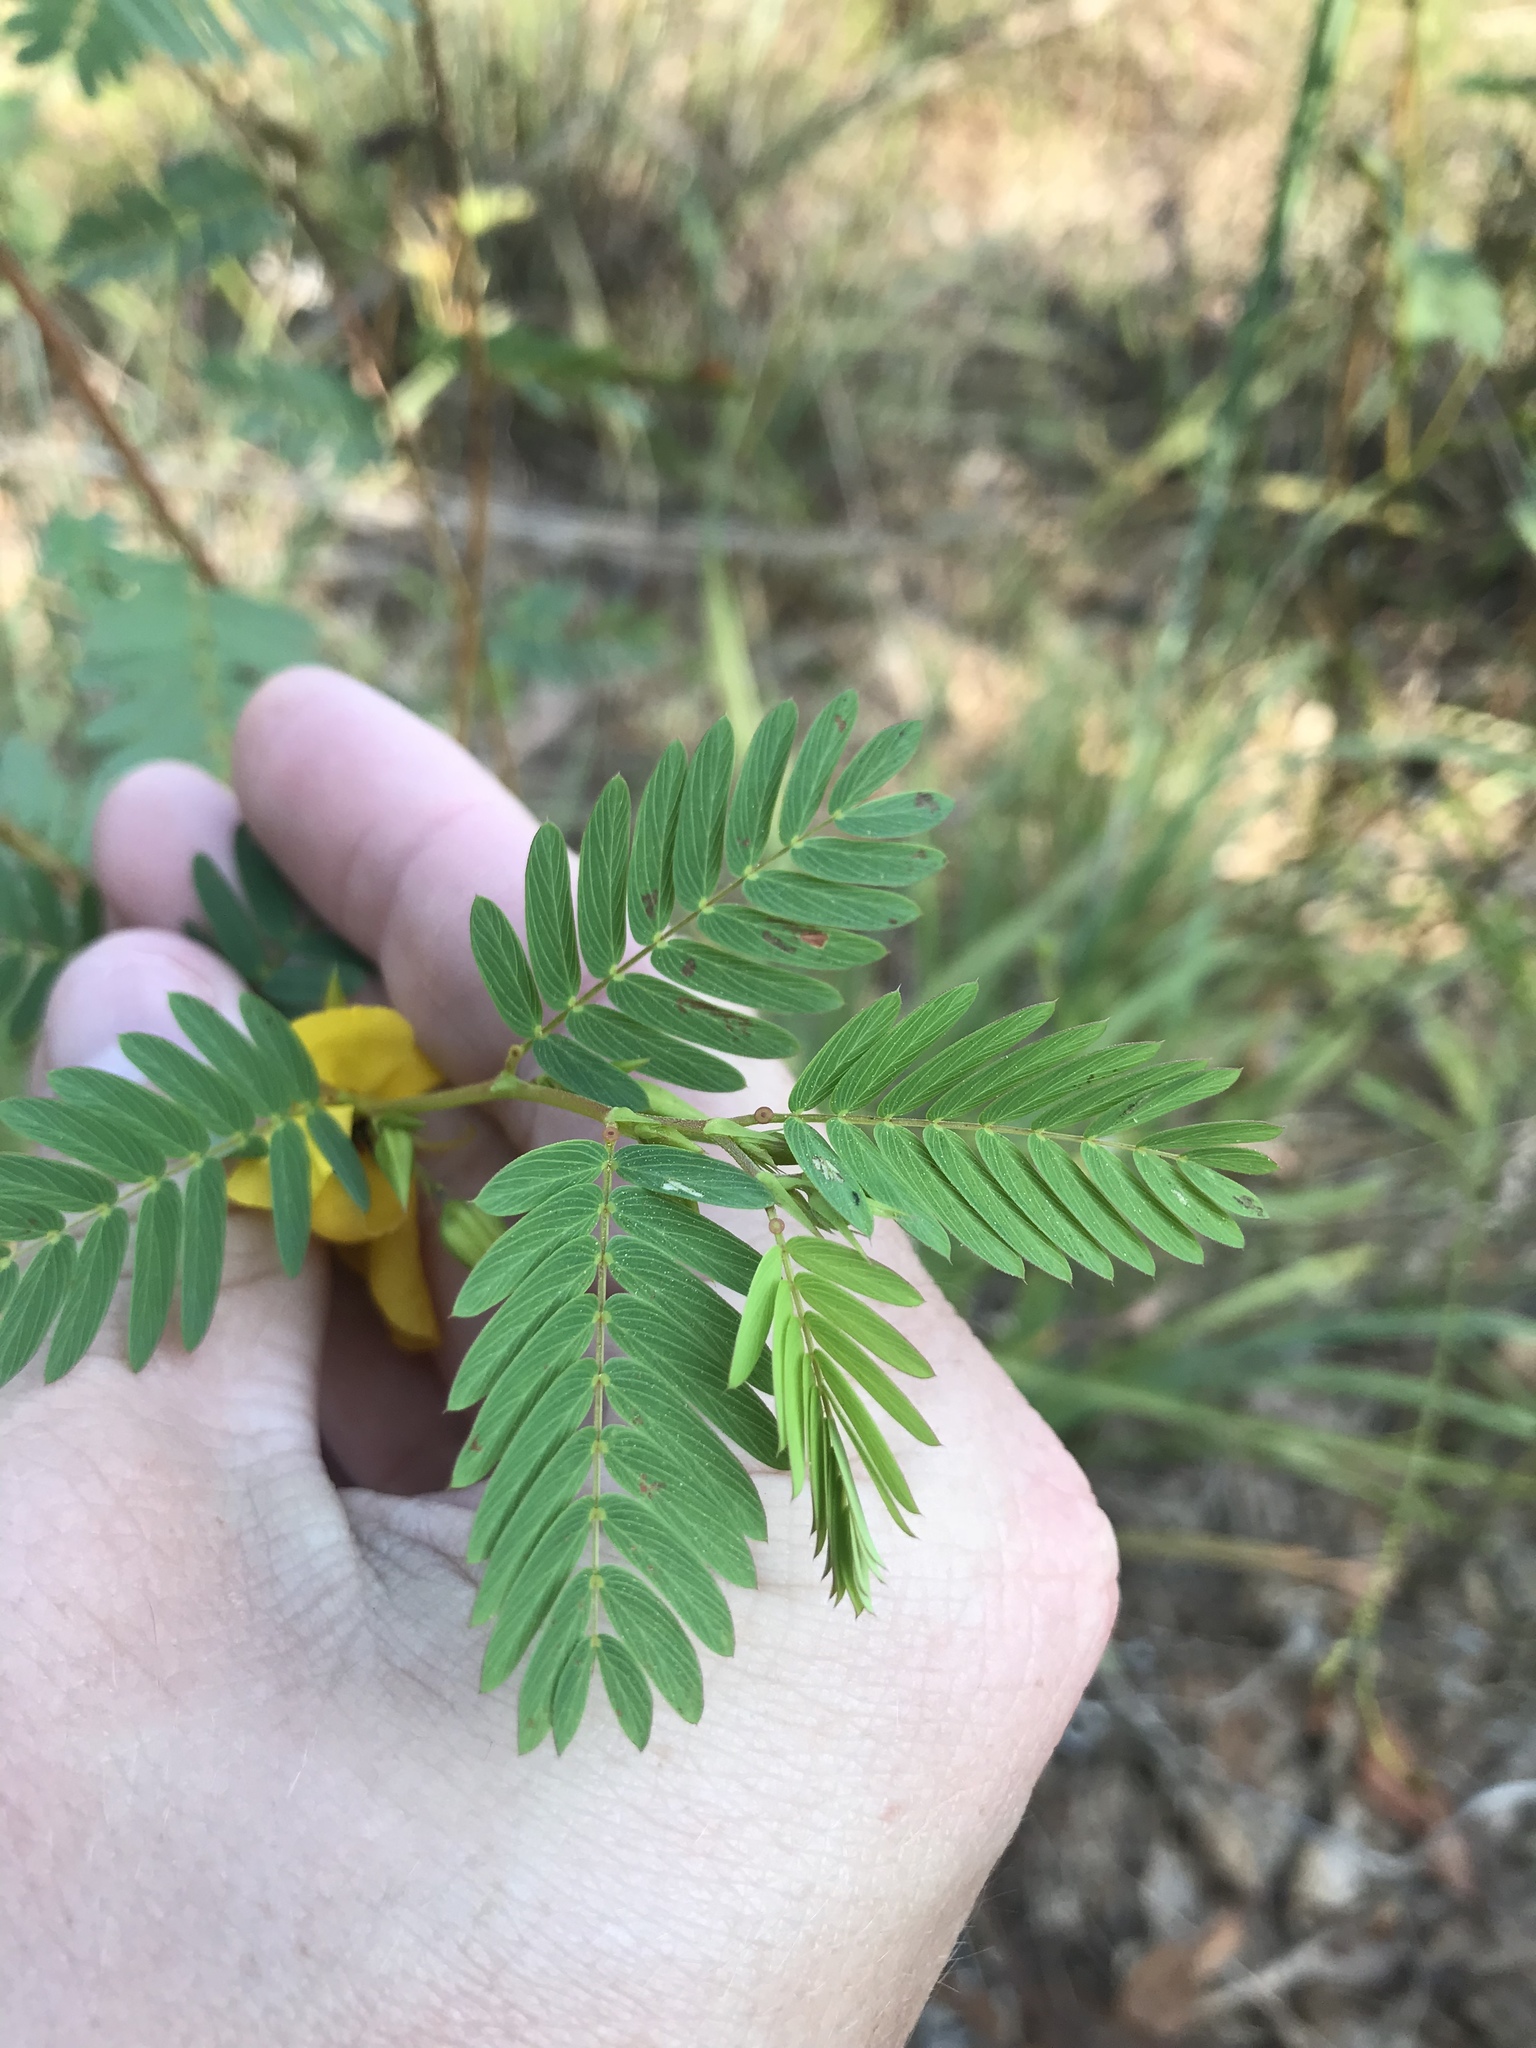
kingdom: Plantae
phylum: Tracheophyta
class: Magnoliopsida
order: Fabales
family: Fabaceae
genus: Chamaecrista
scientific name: Chamaecrista fasciculata
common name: Golden cassia
